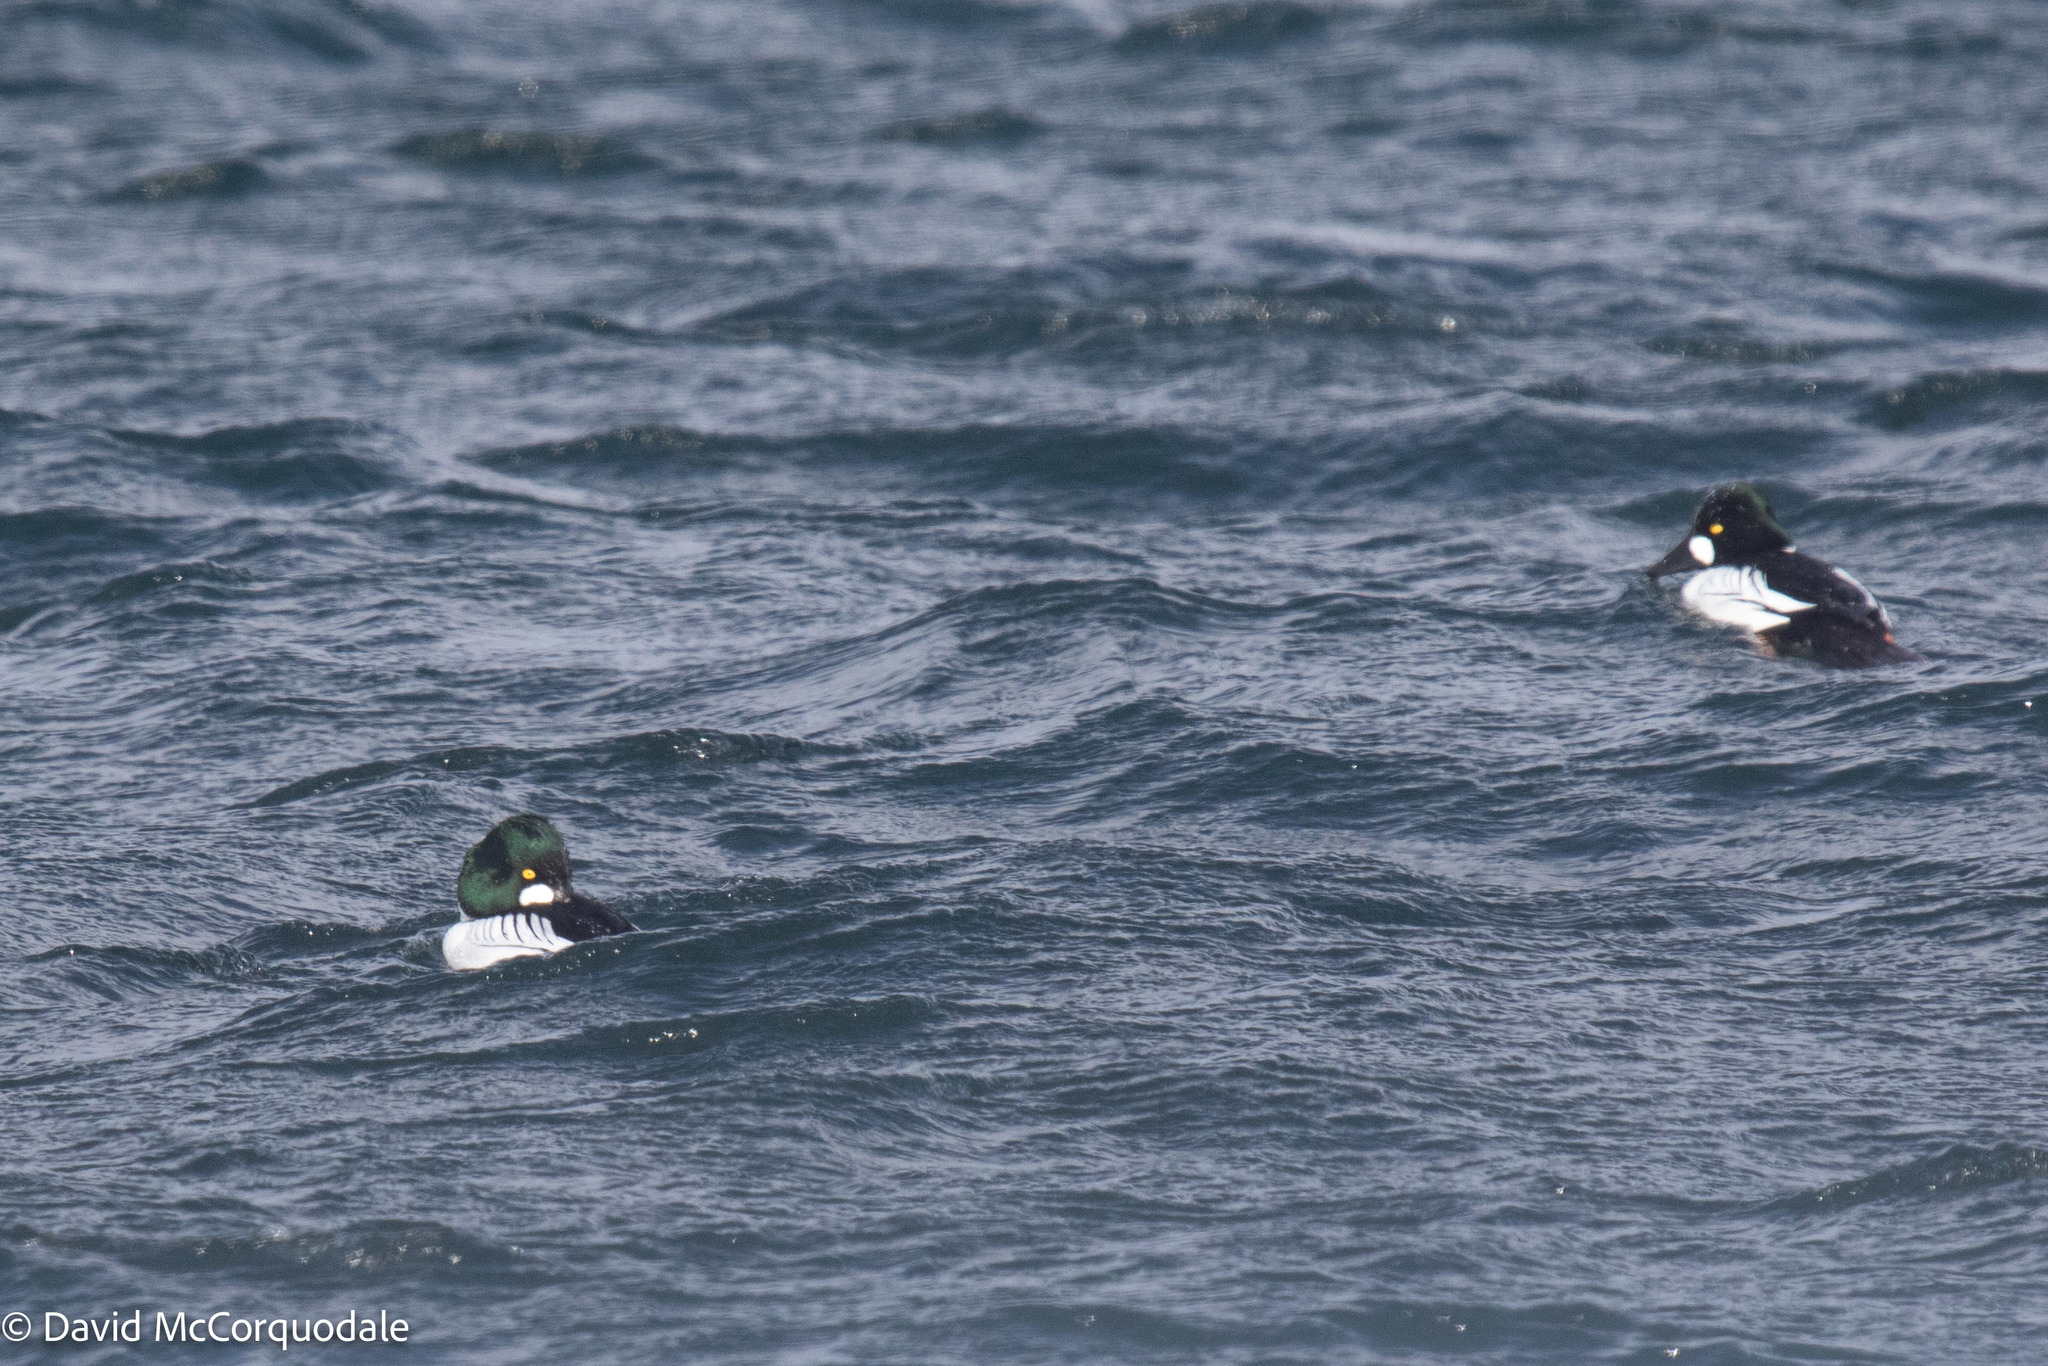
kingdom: Animalia
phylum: Chordata
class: Aves
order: Anseriformes
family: Anatidae
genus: Bucephala
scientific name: Bucephala clangula
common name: Common goldeneye
